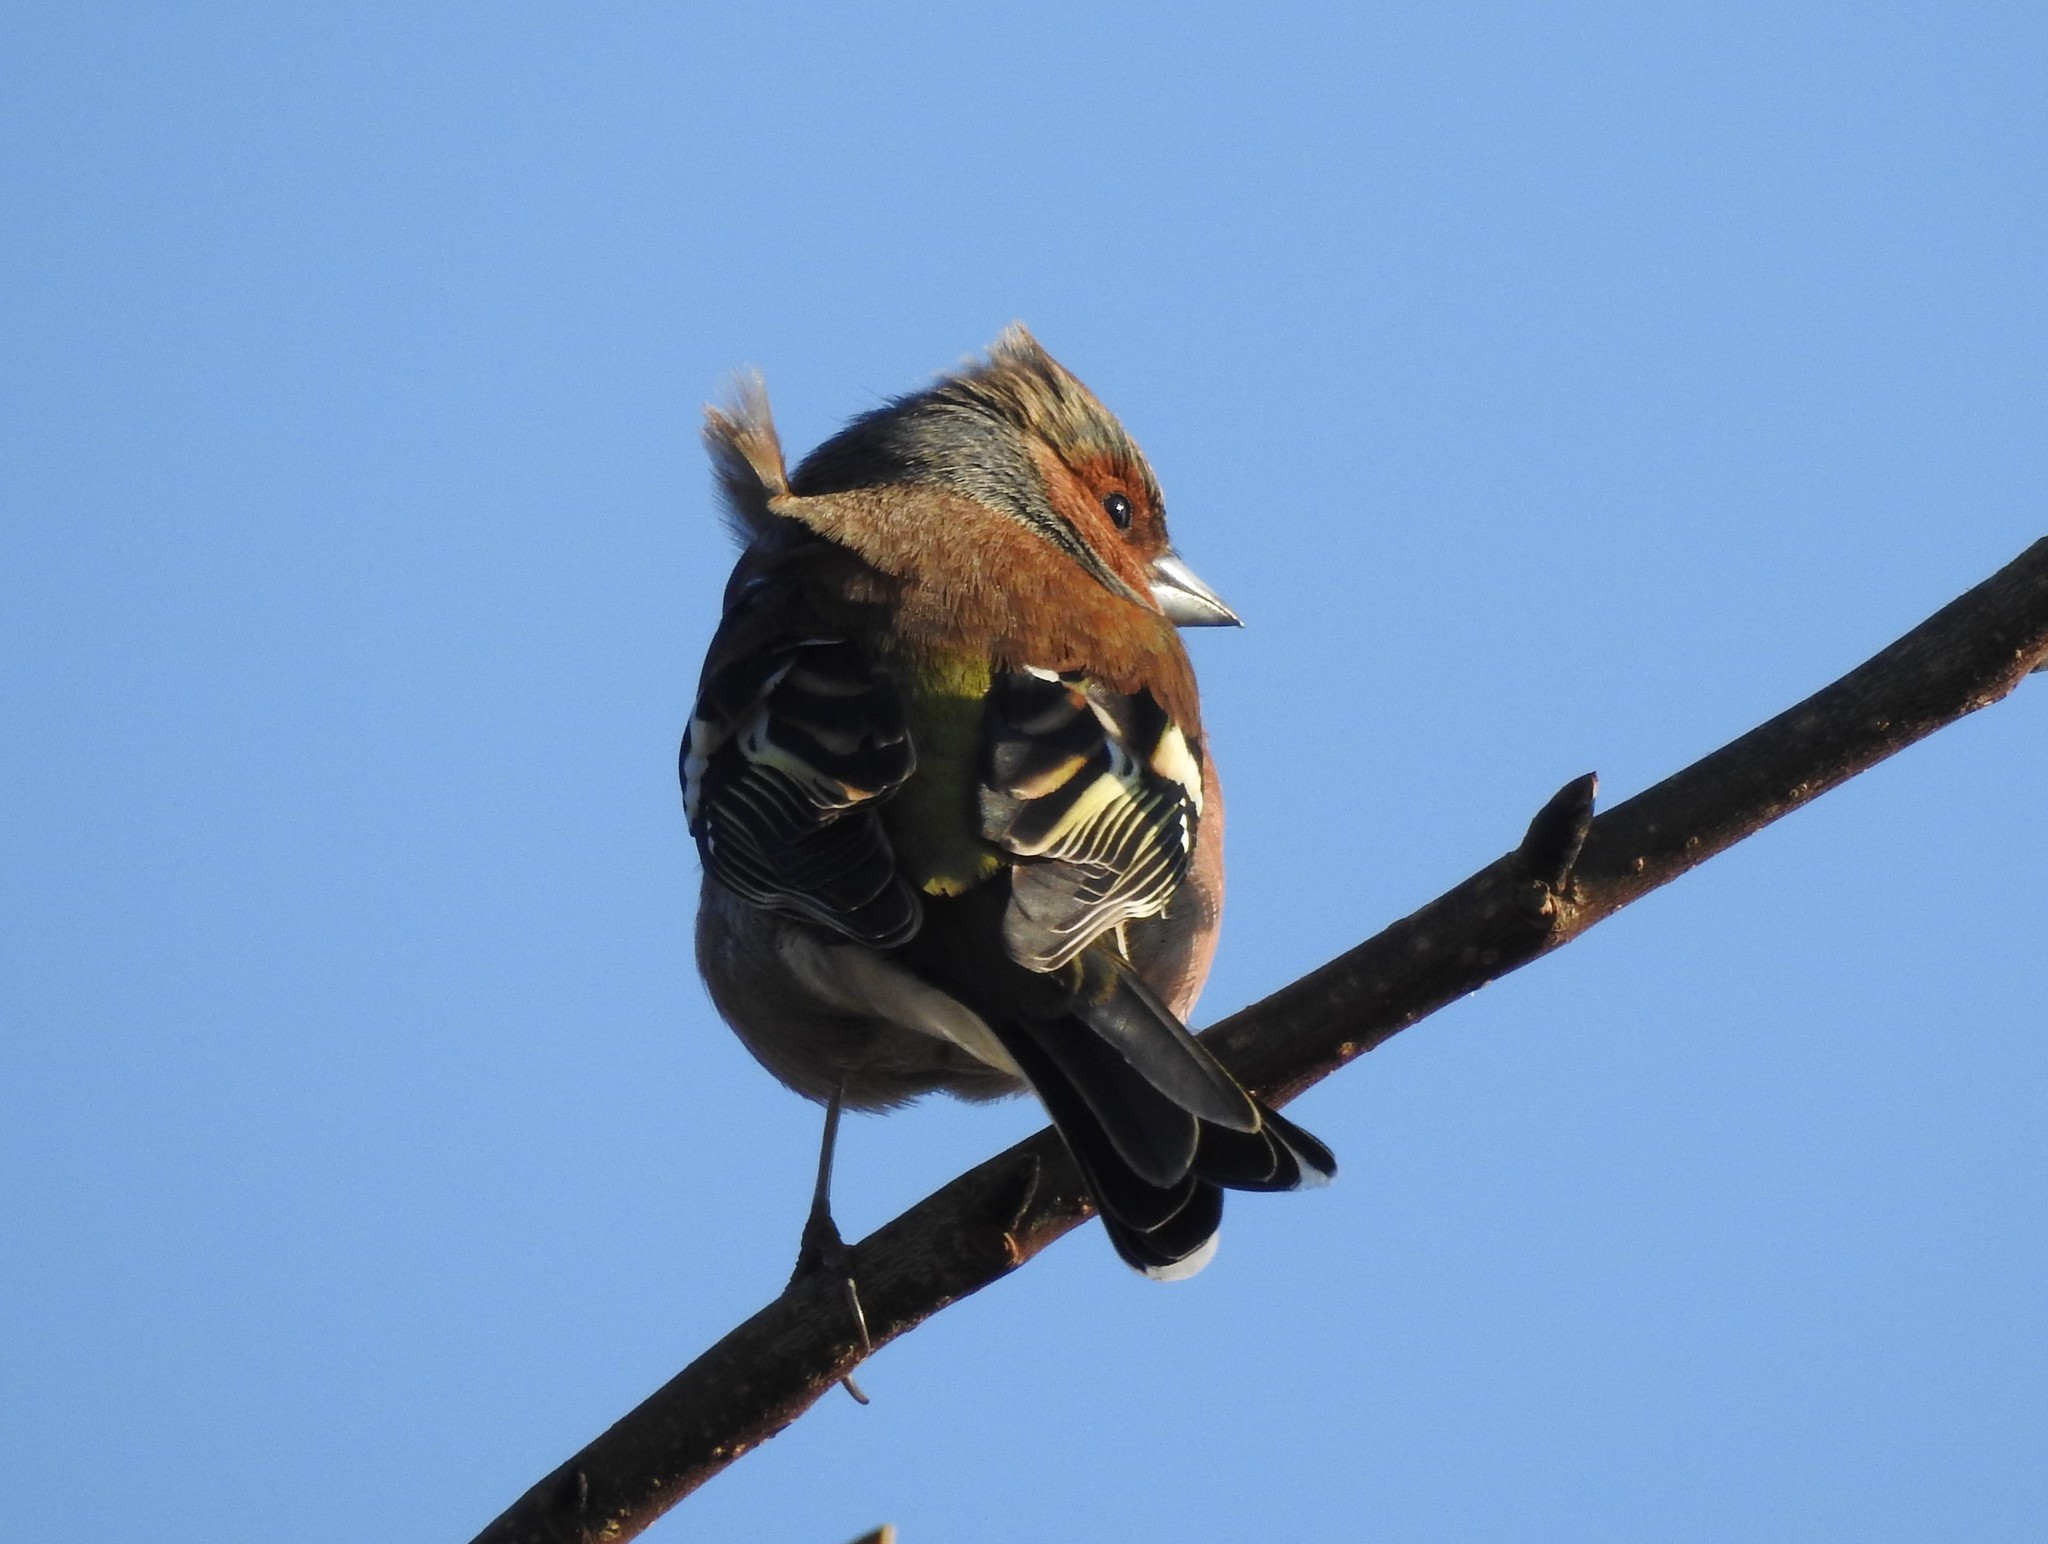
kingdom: Animalia
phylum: Chordata
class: Aves
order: Passeriformes
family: Fringillidae
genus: Fringilla
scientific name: Fringilla coelebs
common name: Common chaffinch
